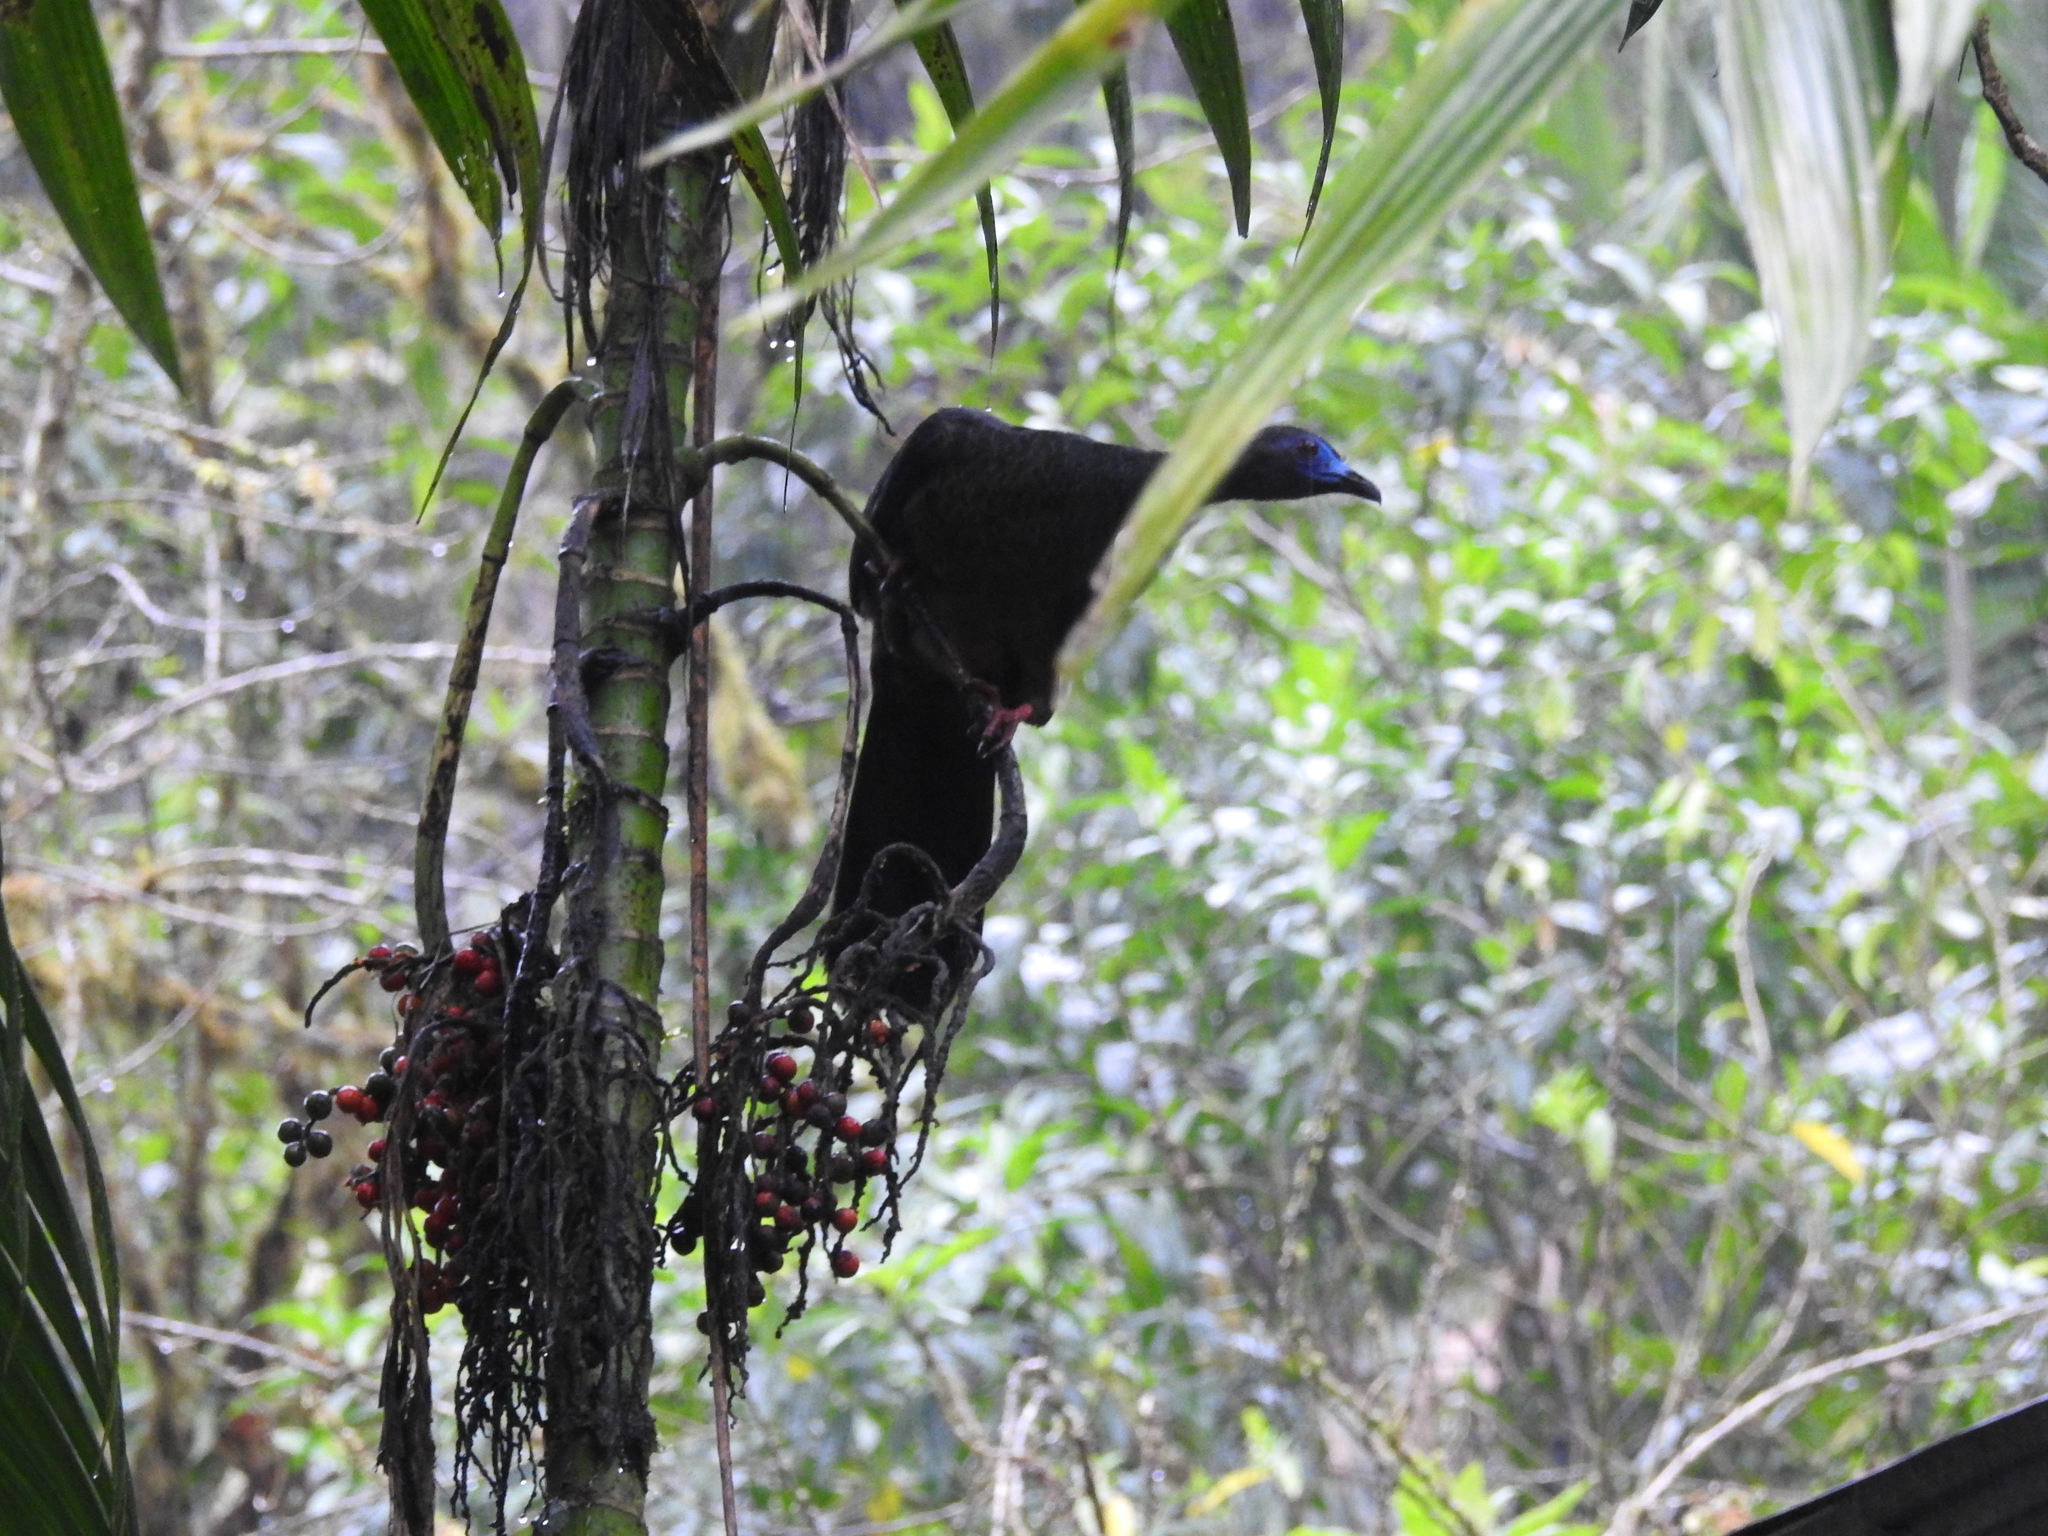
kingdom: Animalia
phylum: Chordata
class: Aves
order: Galliformes
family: Cracidae
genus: Chamaepetes
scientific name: Chamaepetes goudotii
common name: Sickle-winged guan
